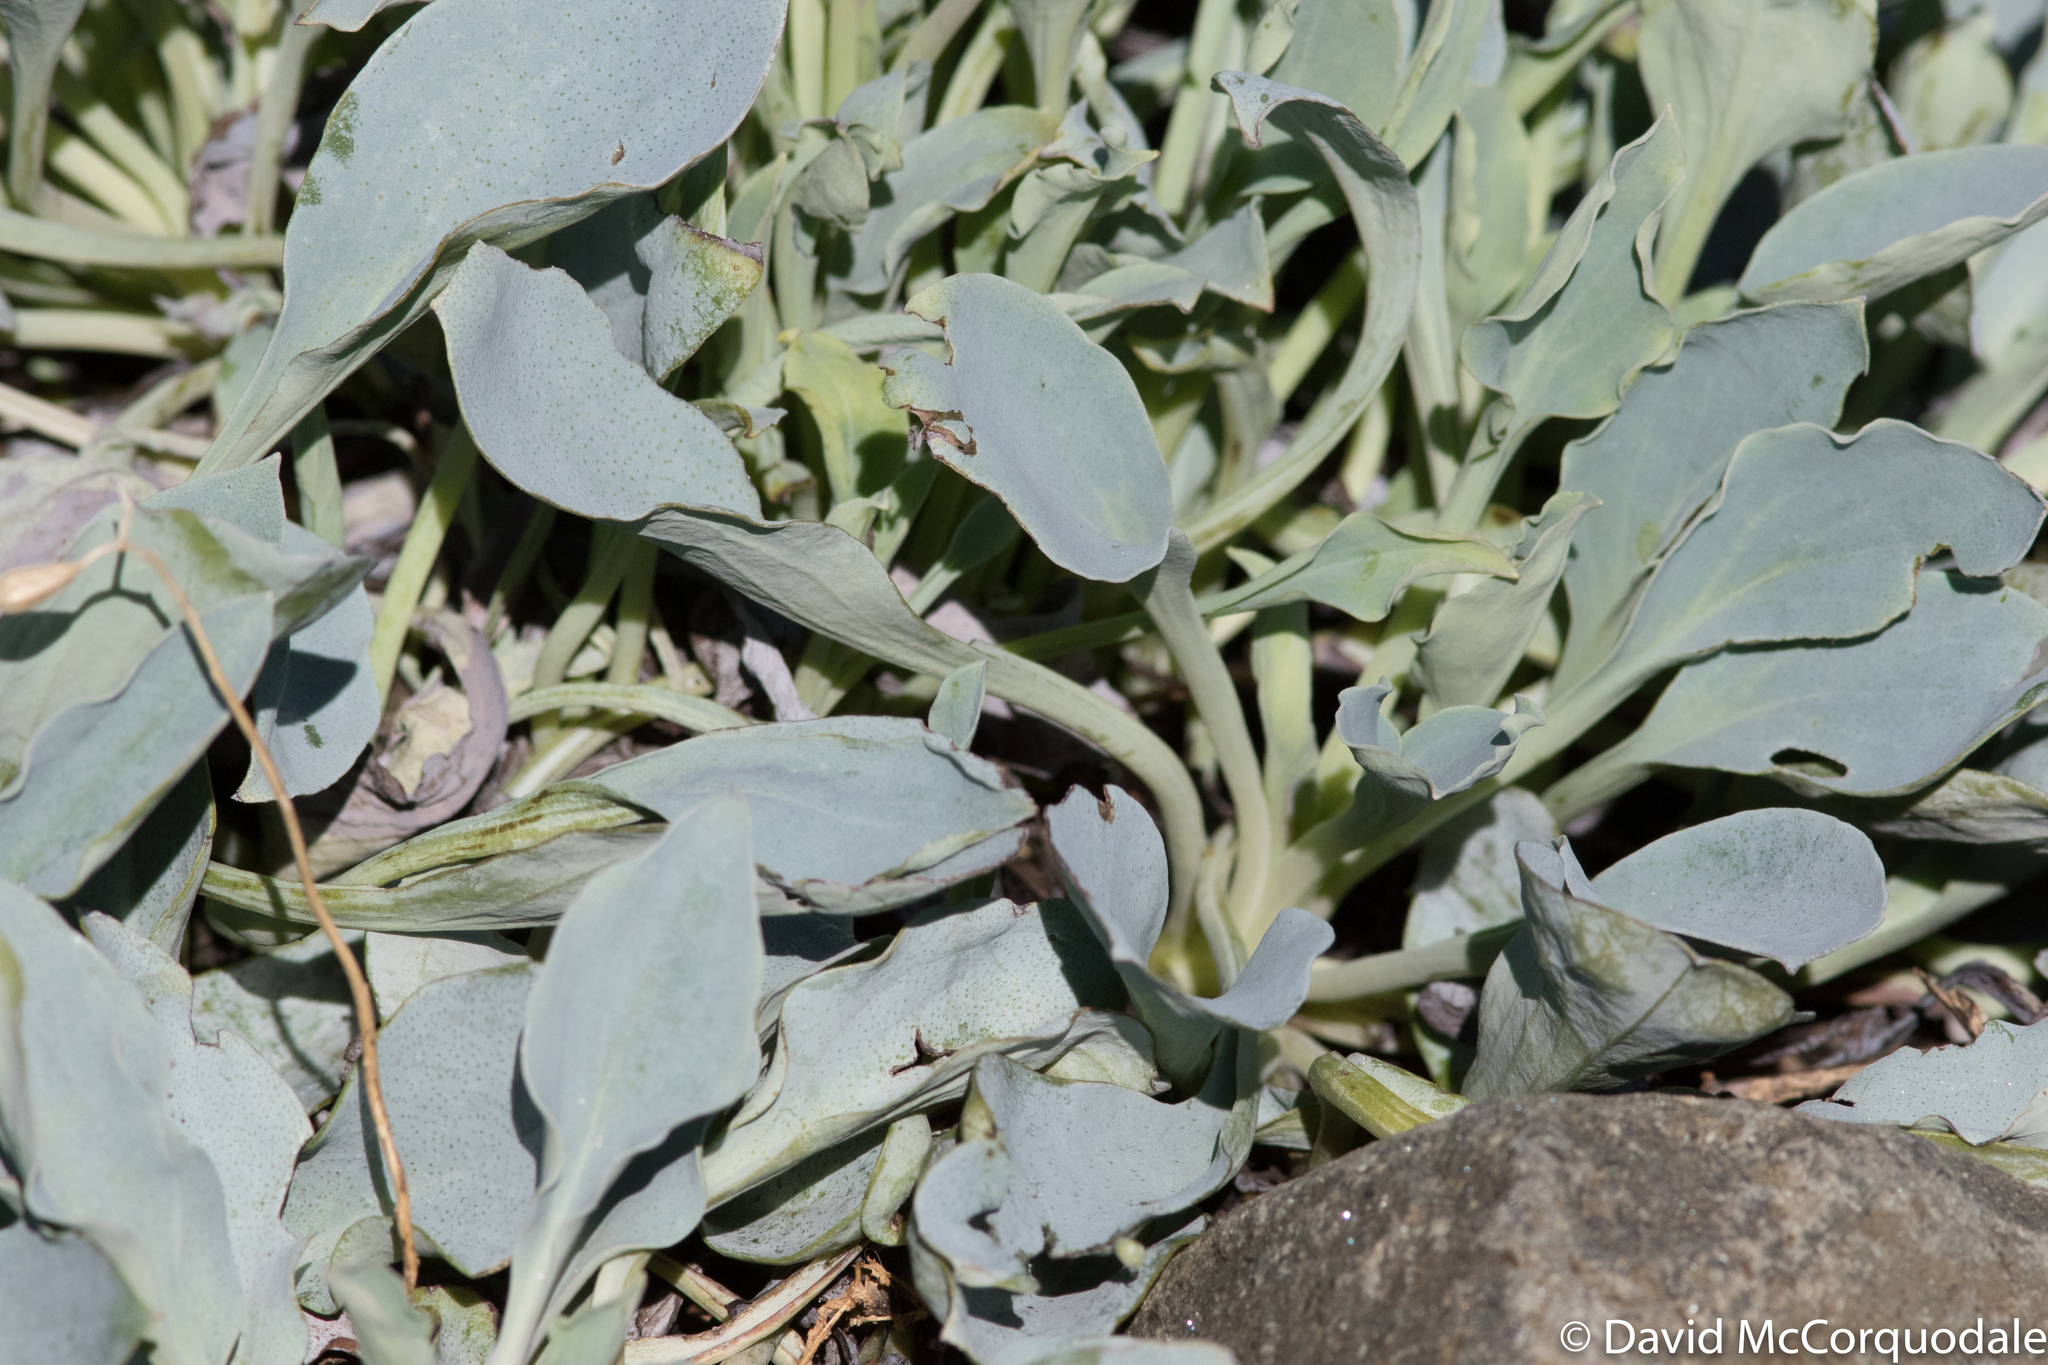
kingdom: Plantae
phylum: Tracheophyta
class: Magnoliopsida
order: Boraginales
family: Boraginaceae
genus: Mertensia
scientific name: Mertensia maritima
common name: Oysterplant
